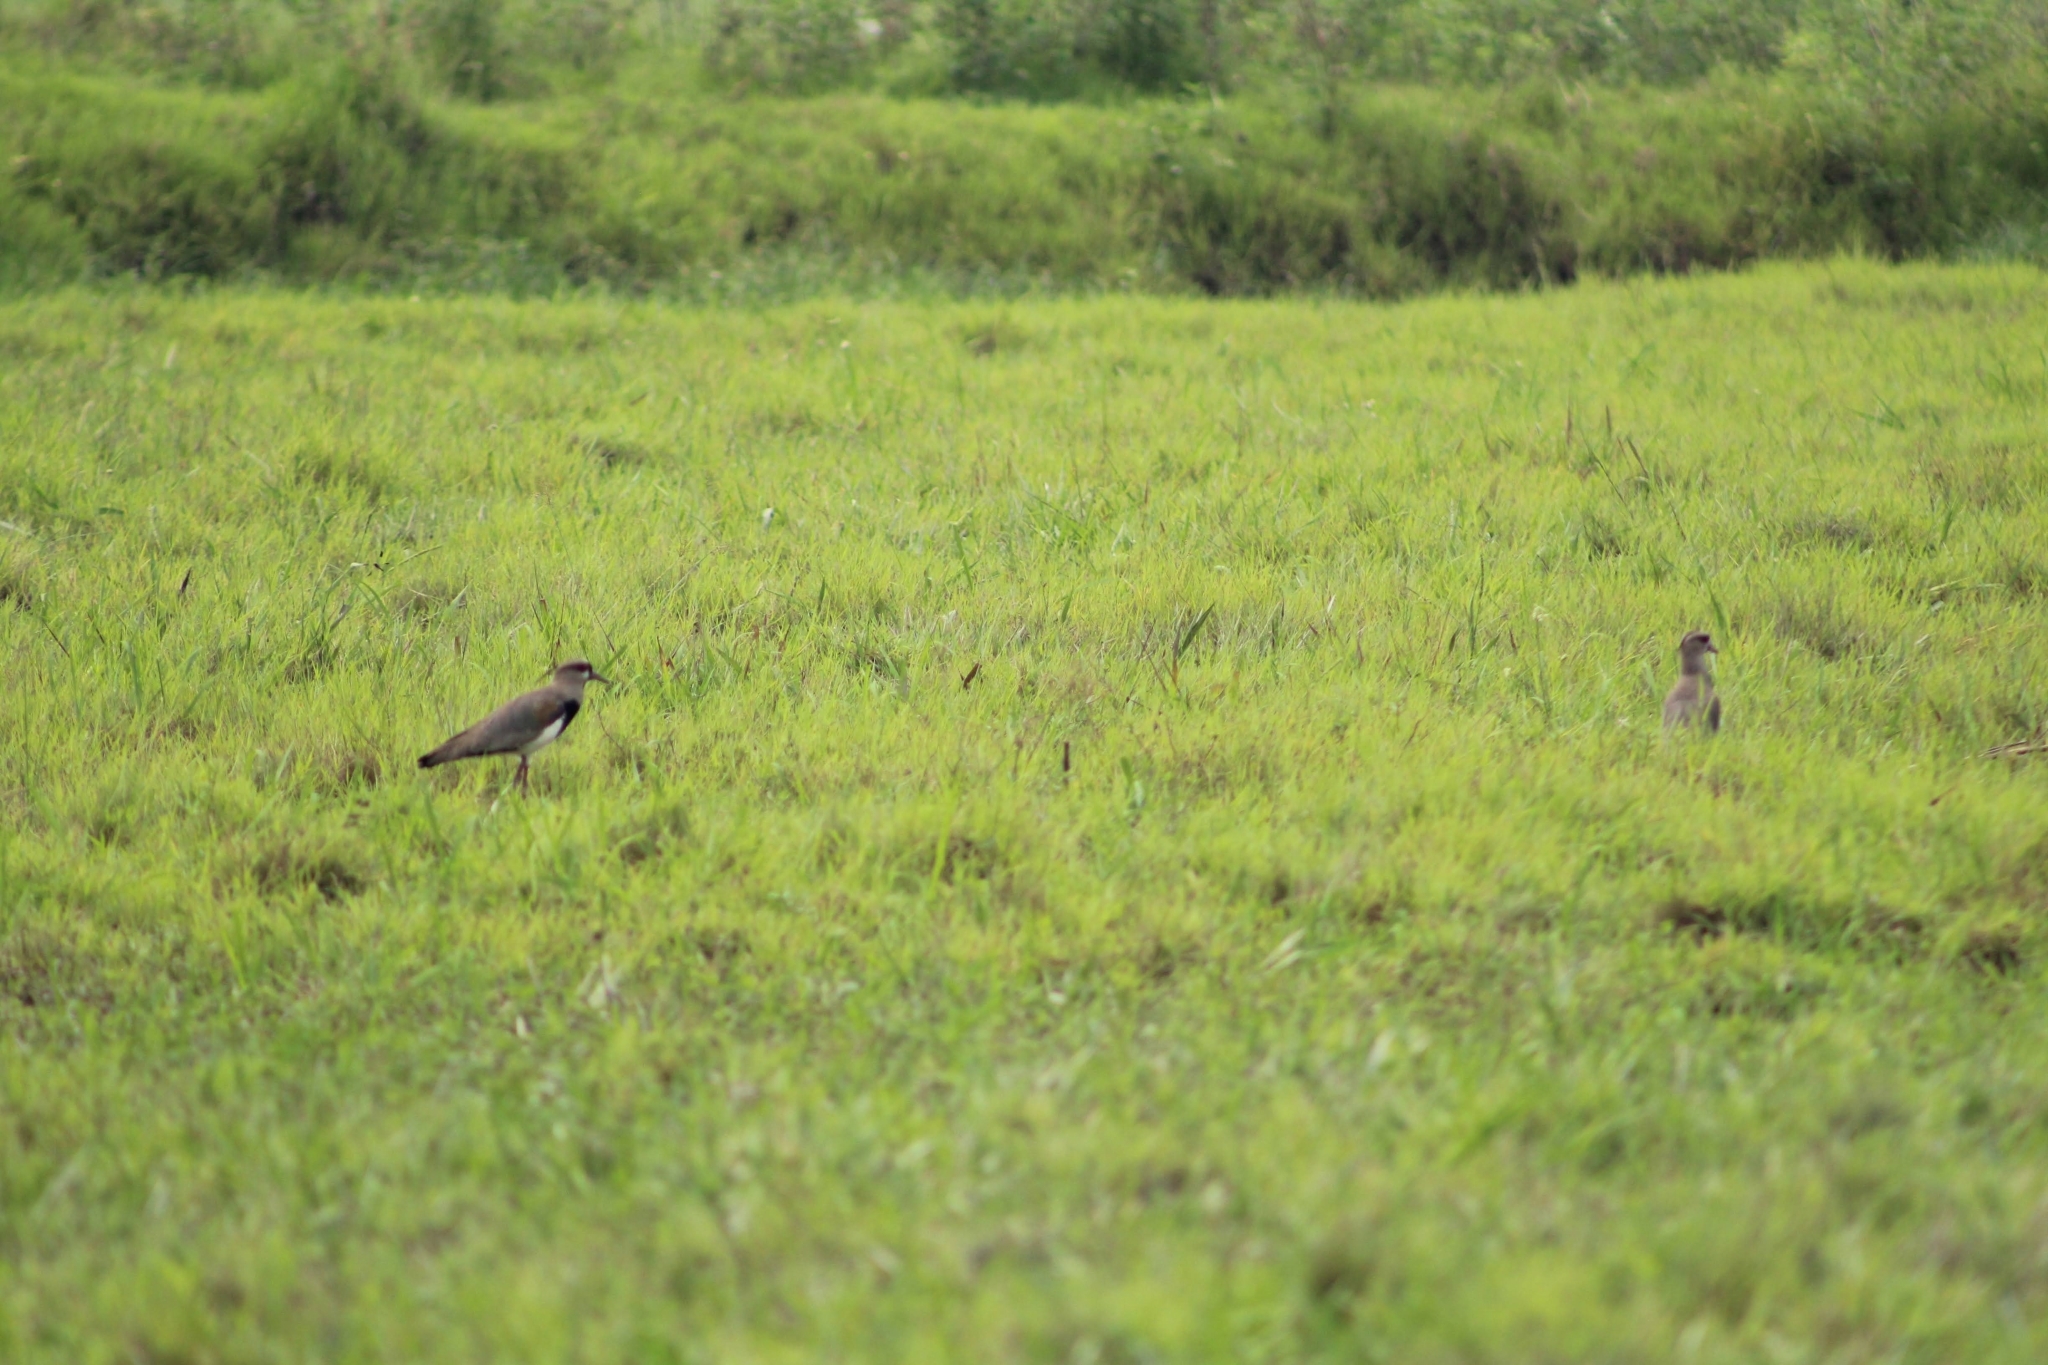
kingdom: Animalia
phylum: Chordata
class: Aves
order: Charadriiformes
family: Charadriidae
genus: Vanellus
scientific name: Vanellus chilensis
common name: Southern lapwing
